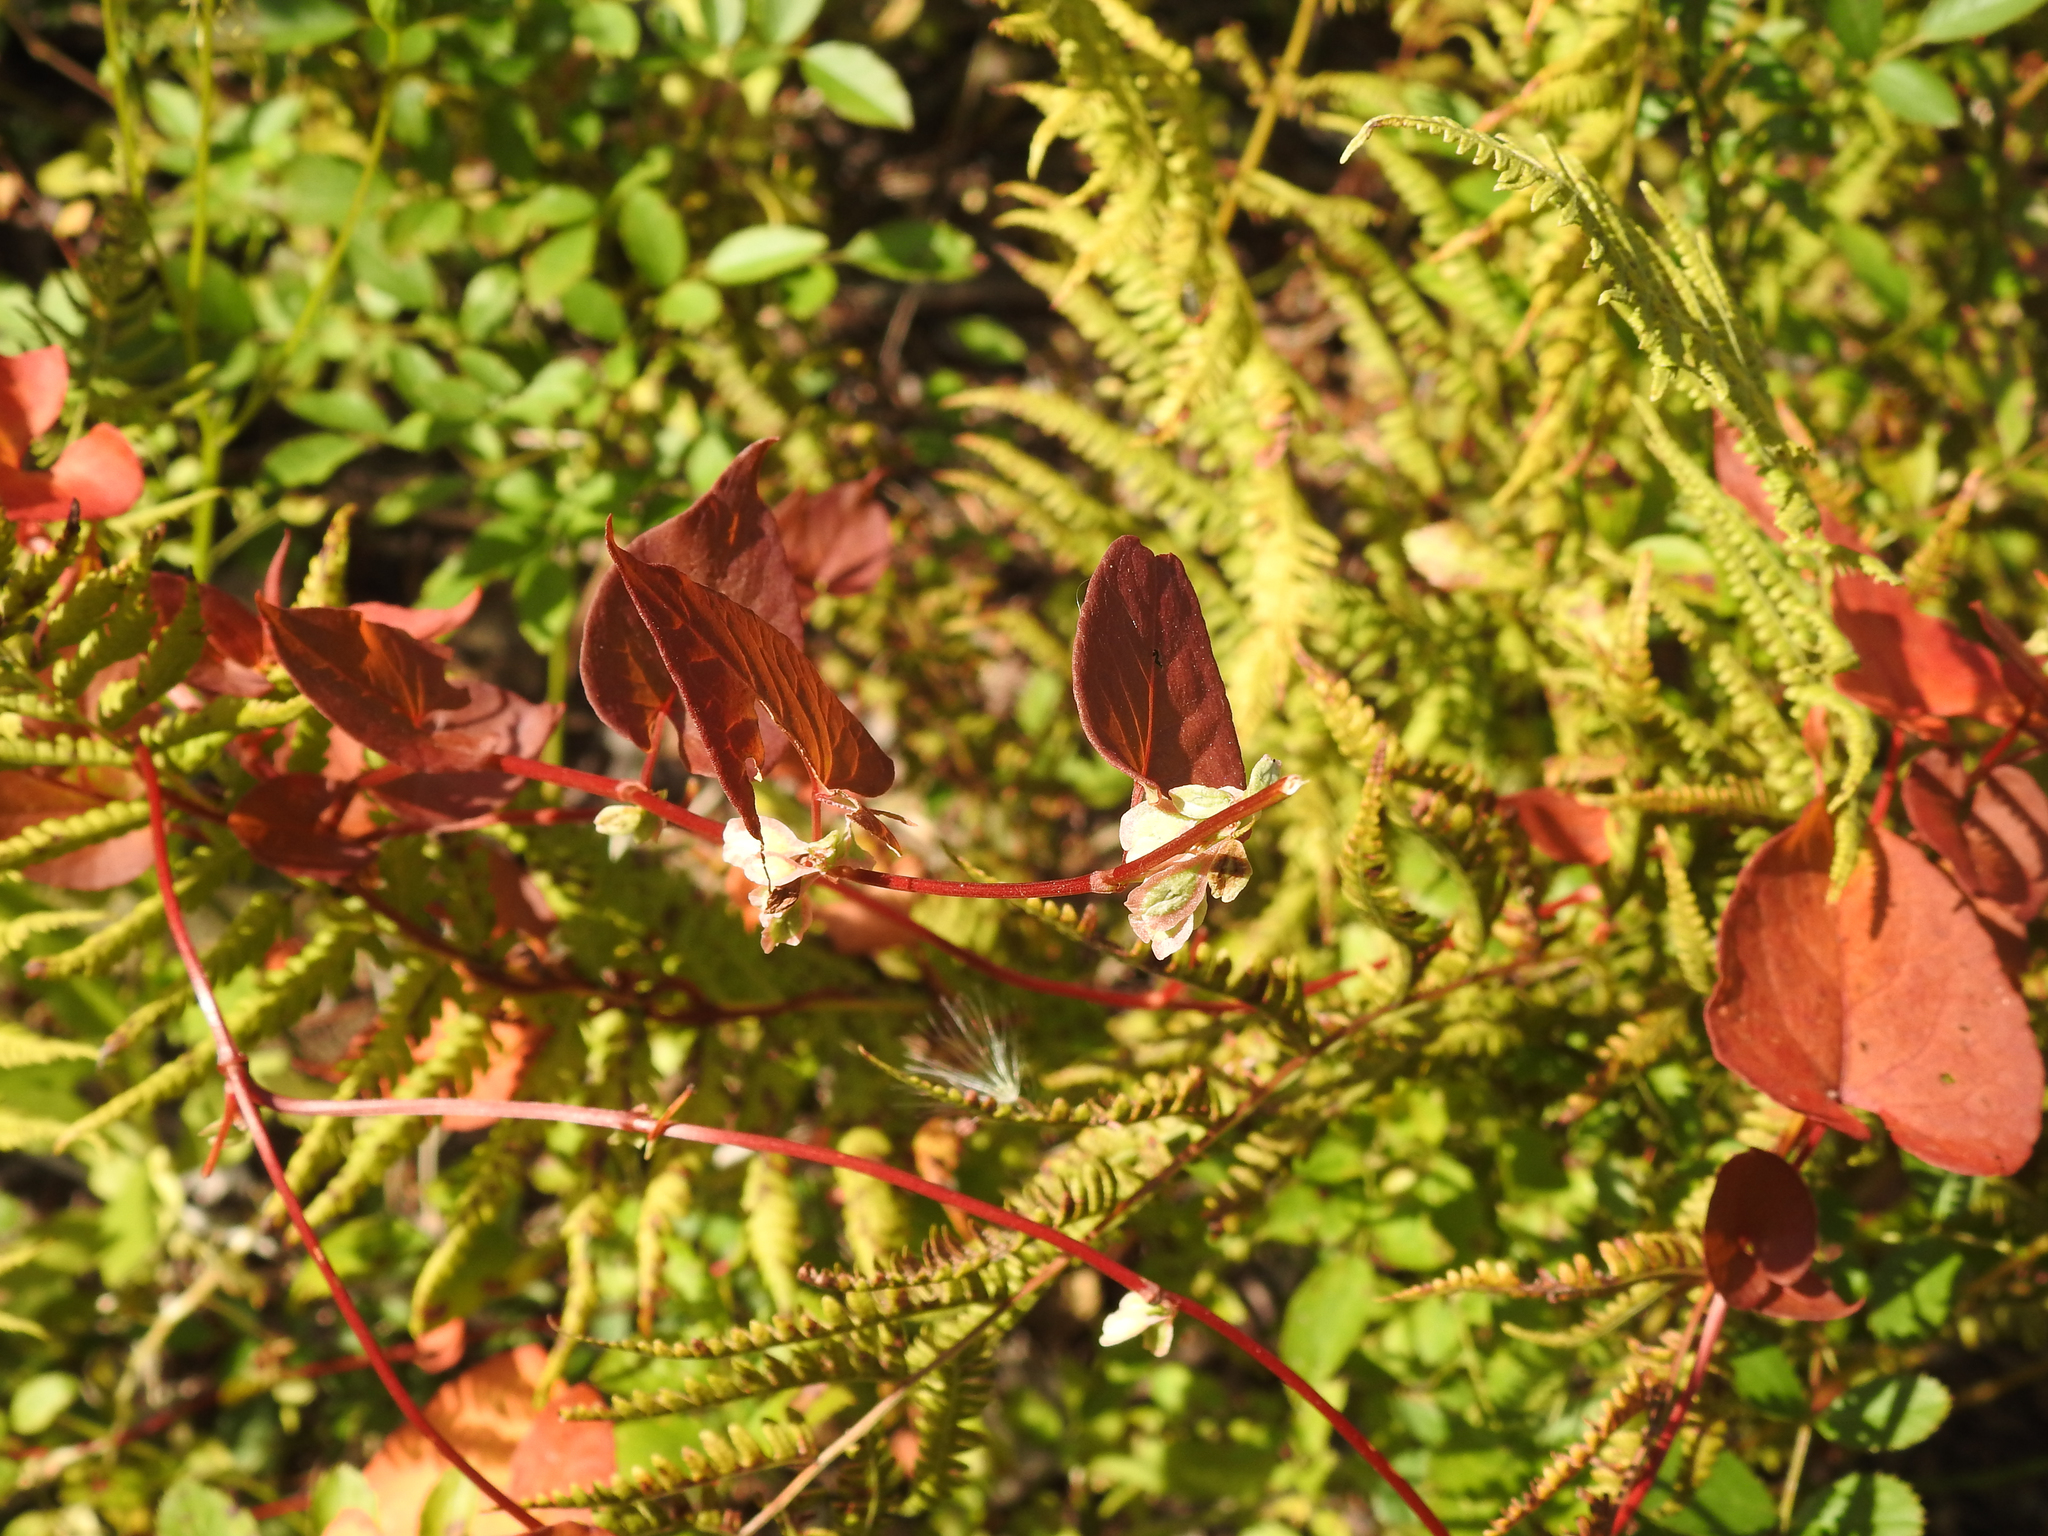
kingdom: Plantae
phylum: Tracheophyta
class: Magnoliopsida
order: Caryophyllales
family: Polygonaceae
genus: Fallopia
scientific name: Fallopia scandens
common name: Climbing false buckwheat
